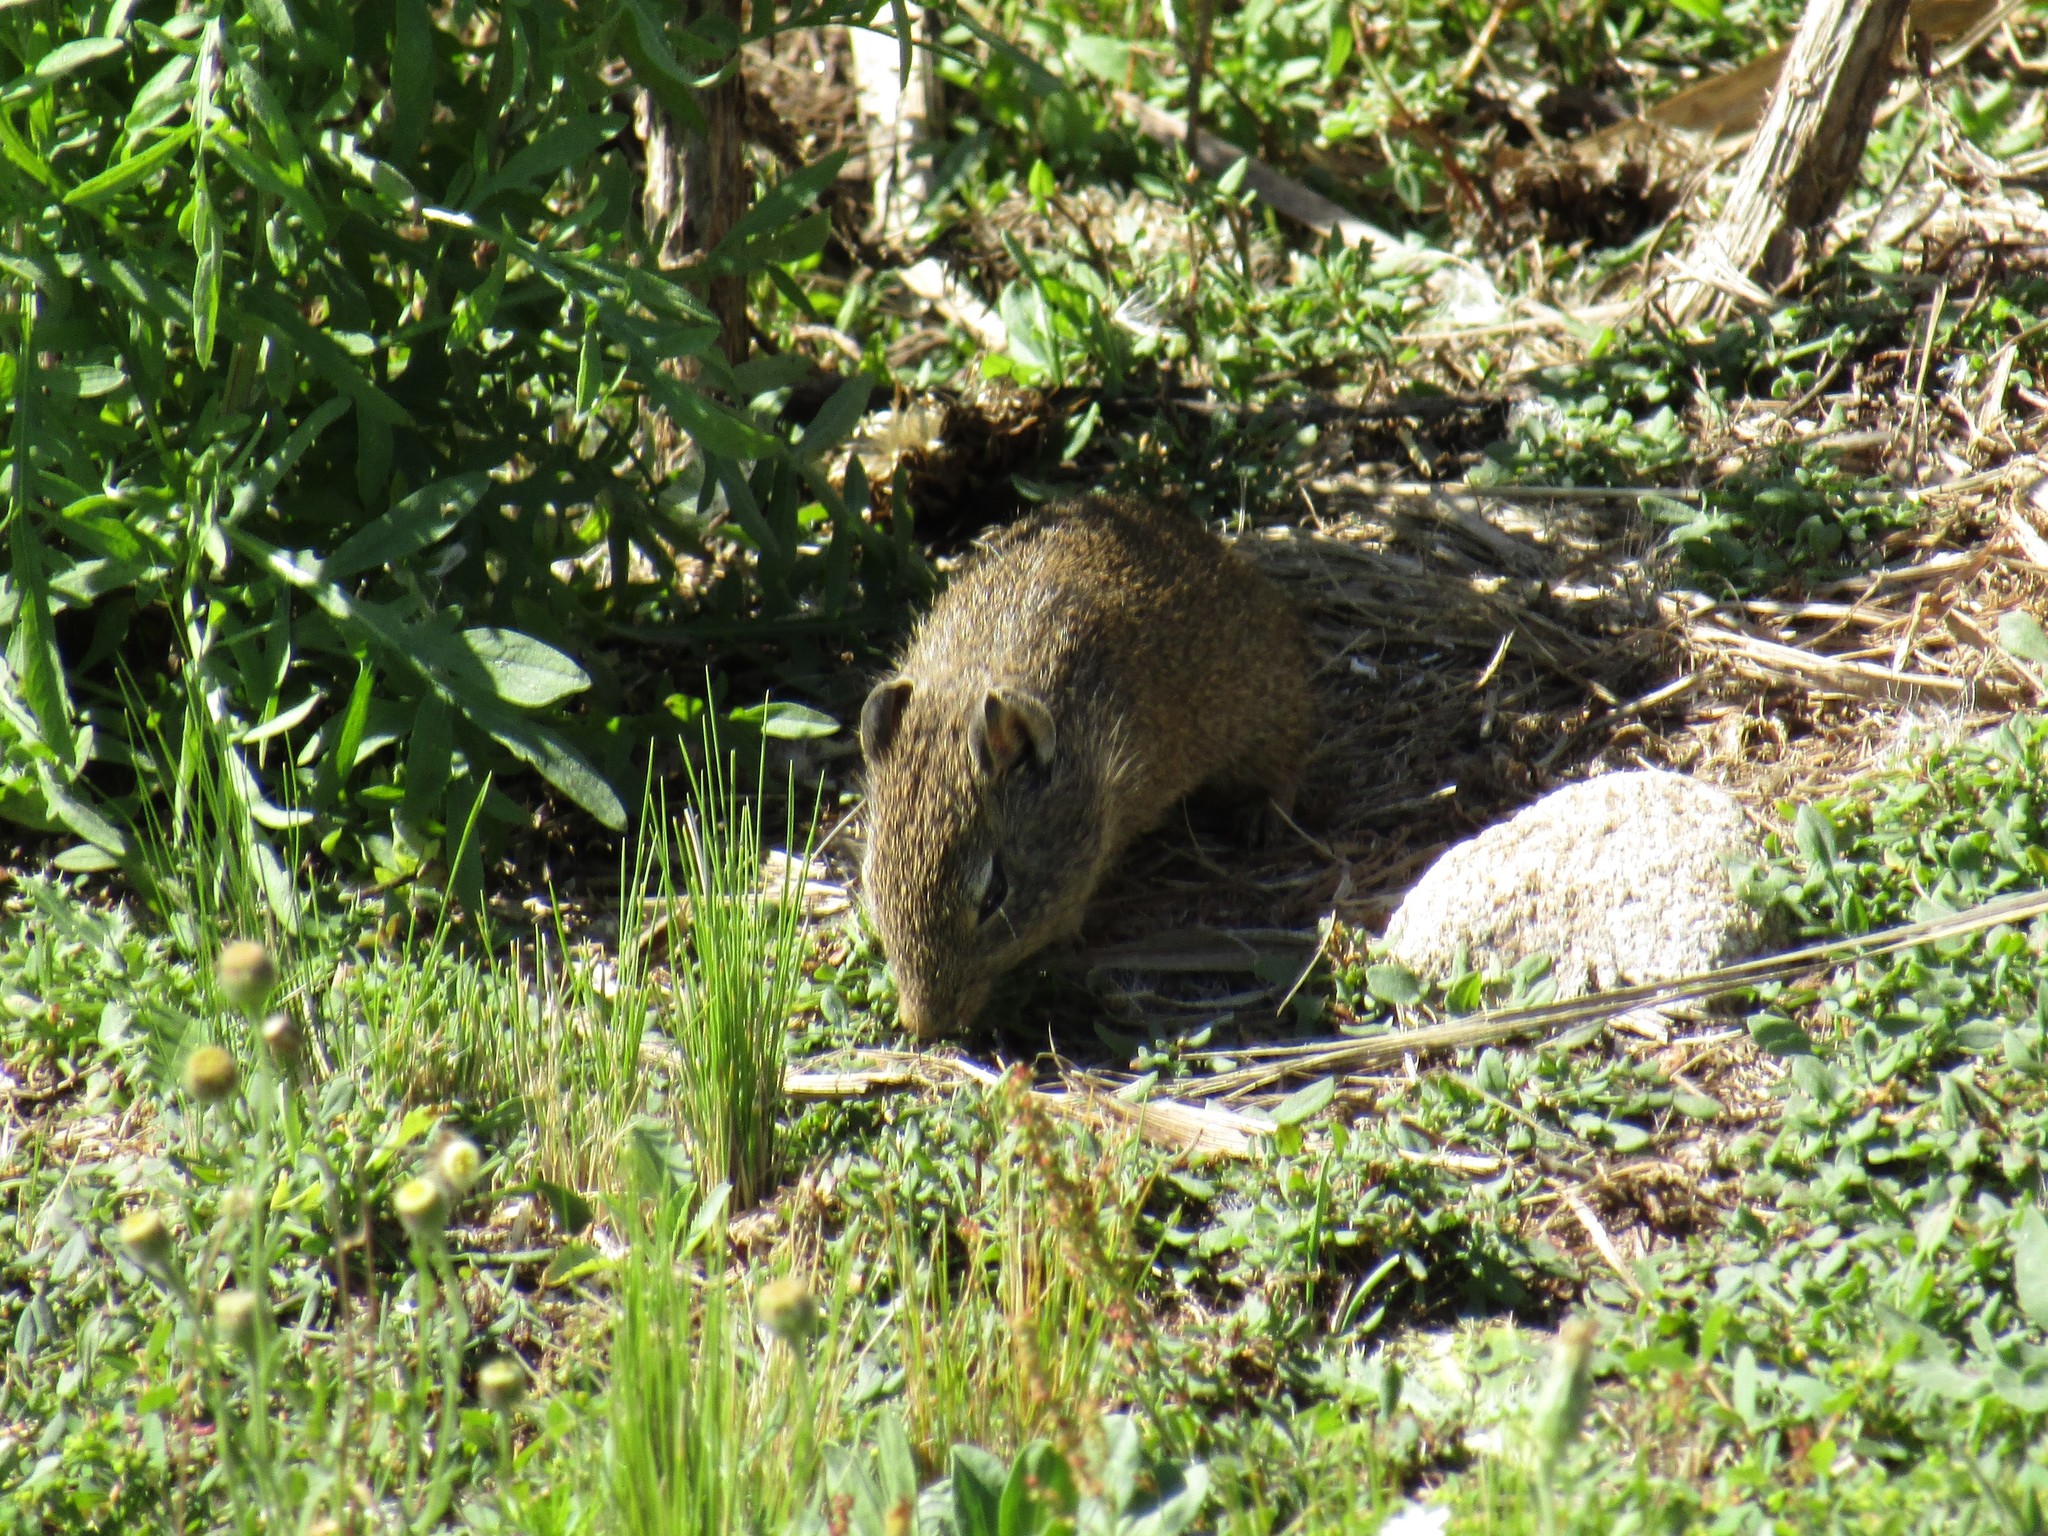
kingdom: Animalia
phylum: Chordata
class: Mammalia
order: Rodentia
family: Caviidae
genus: Cavia
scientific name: Cavia aperea
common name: Brazilian guinea pig
